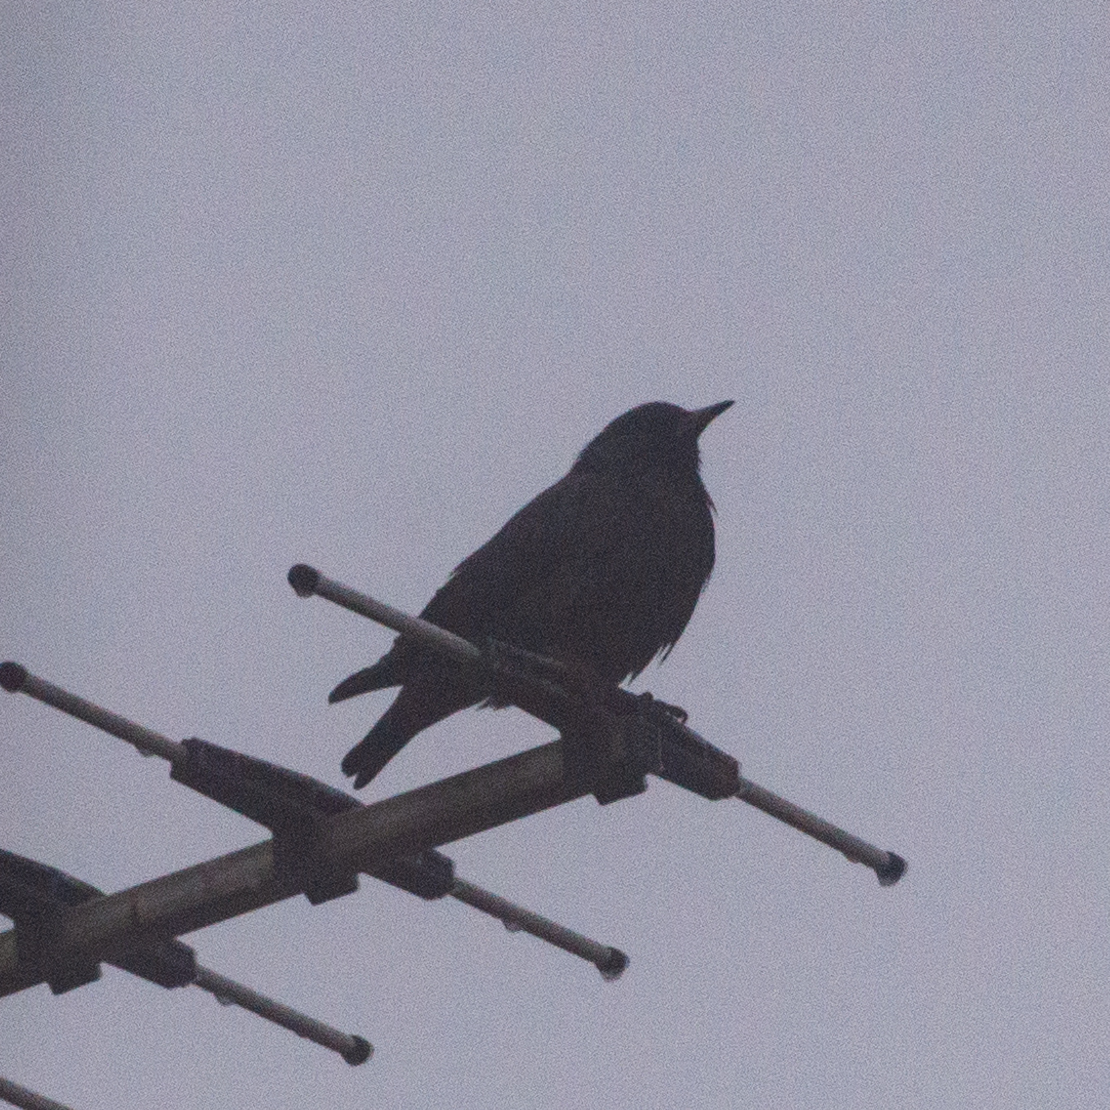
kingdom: Animalia
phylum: Chordata
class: Aves
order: Passeriformes
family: Sturnidae
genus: Sturnus
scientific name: Sturnus unicolor
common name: Spotless starling
